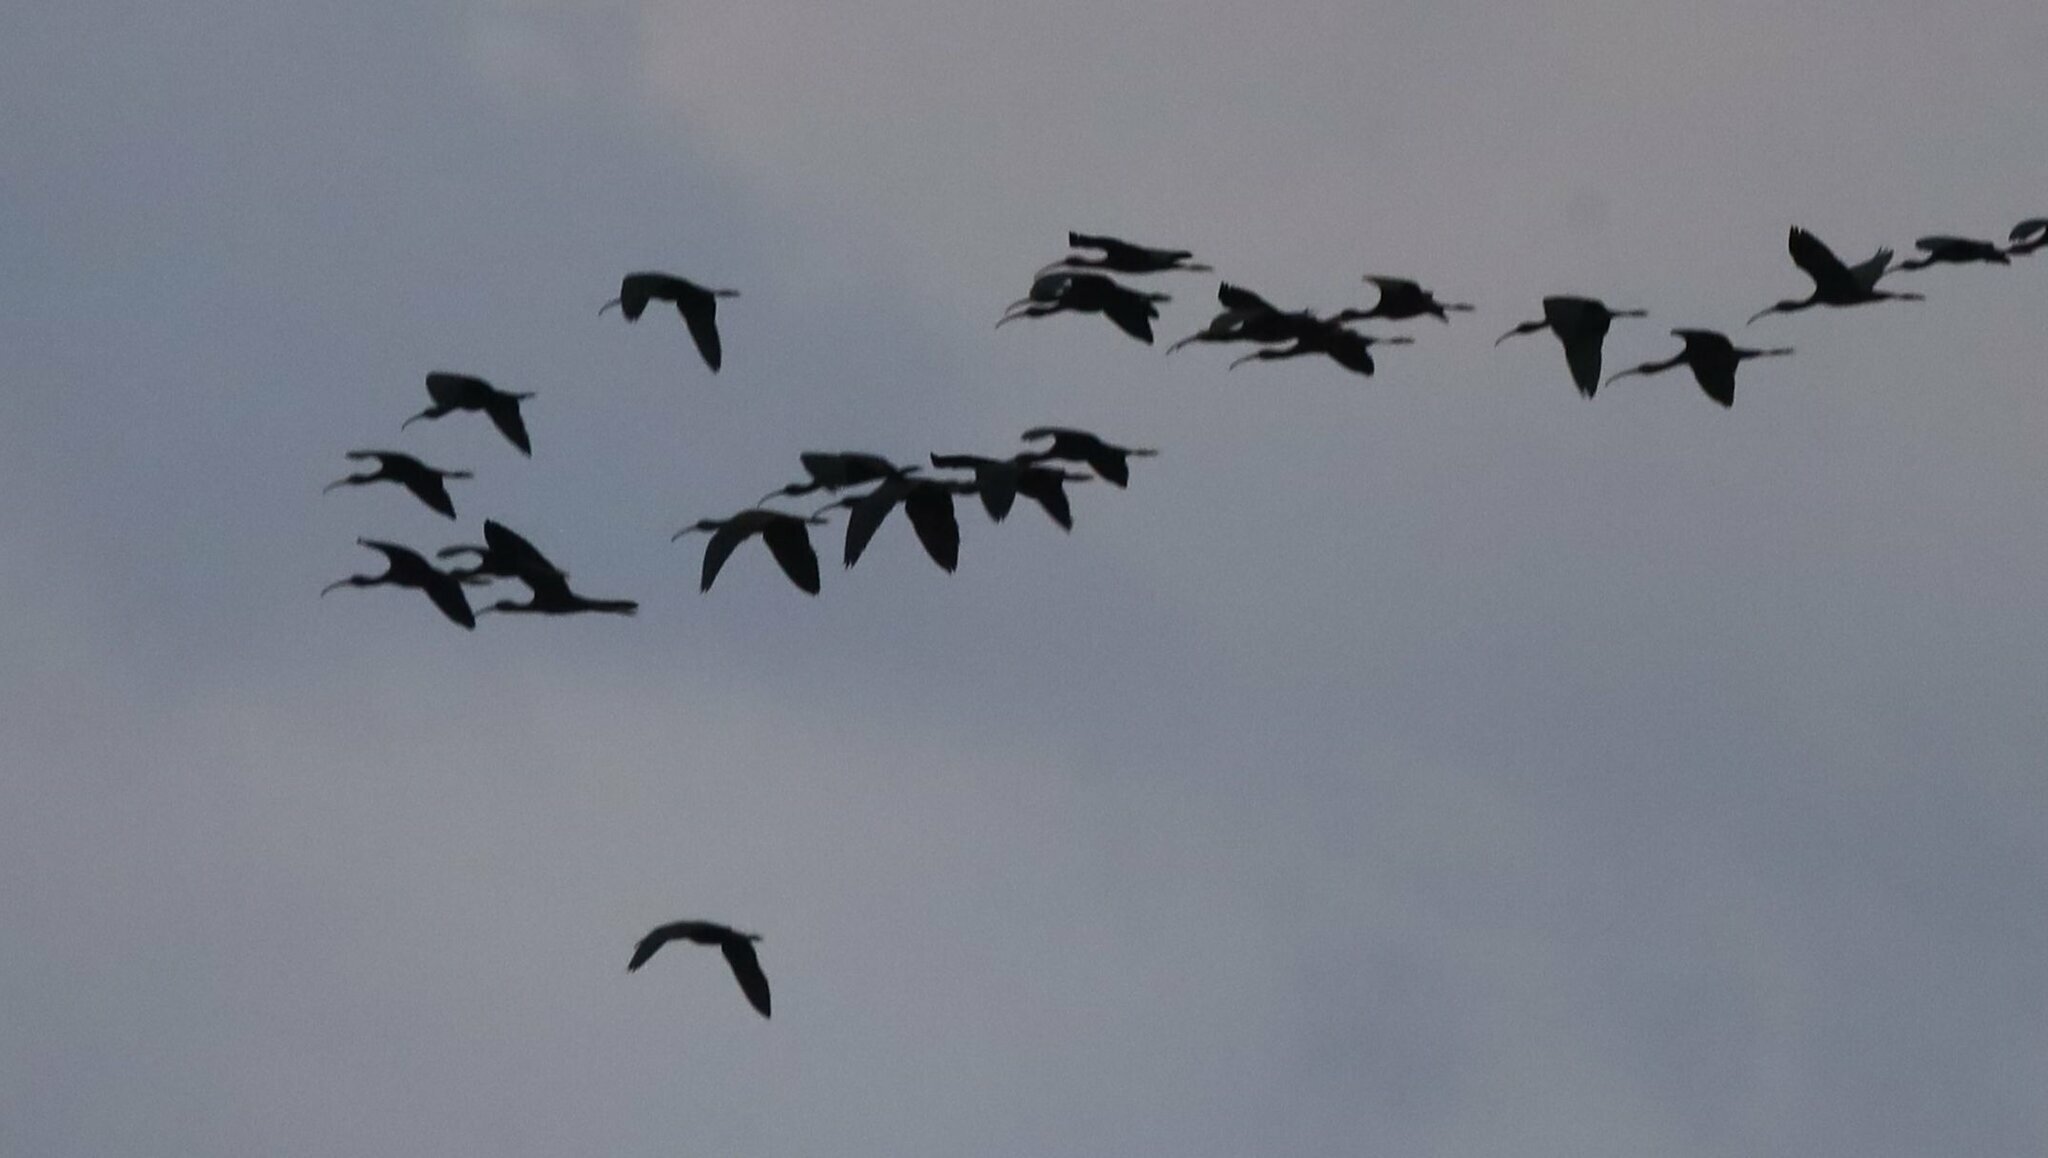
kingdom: Animalia
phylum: Chordata
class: Aves
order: Pelecaniformes
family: Threskiornithidae
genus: Plegadis
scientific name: Plegadis falcinellus
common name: Glossy ibis
